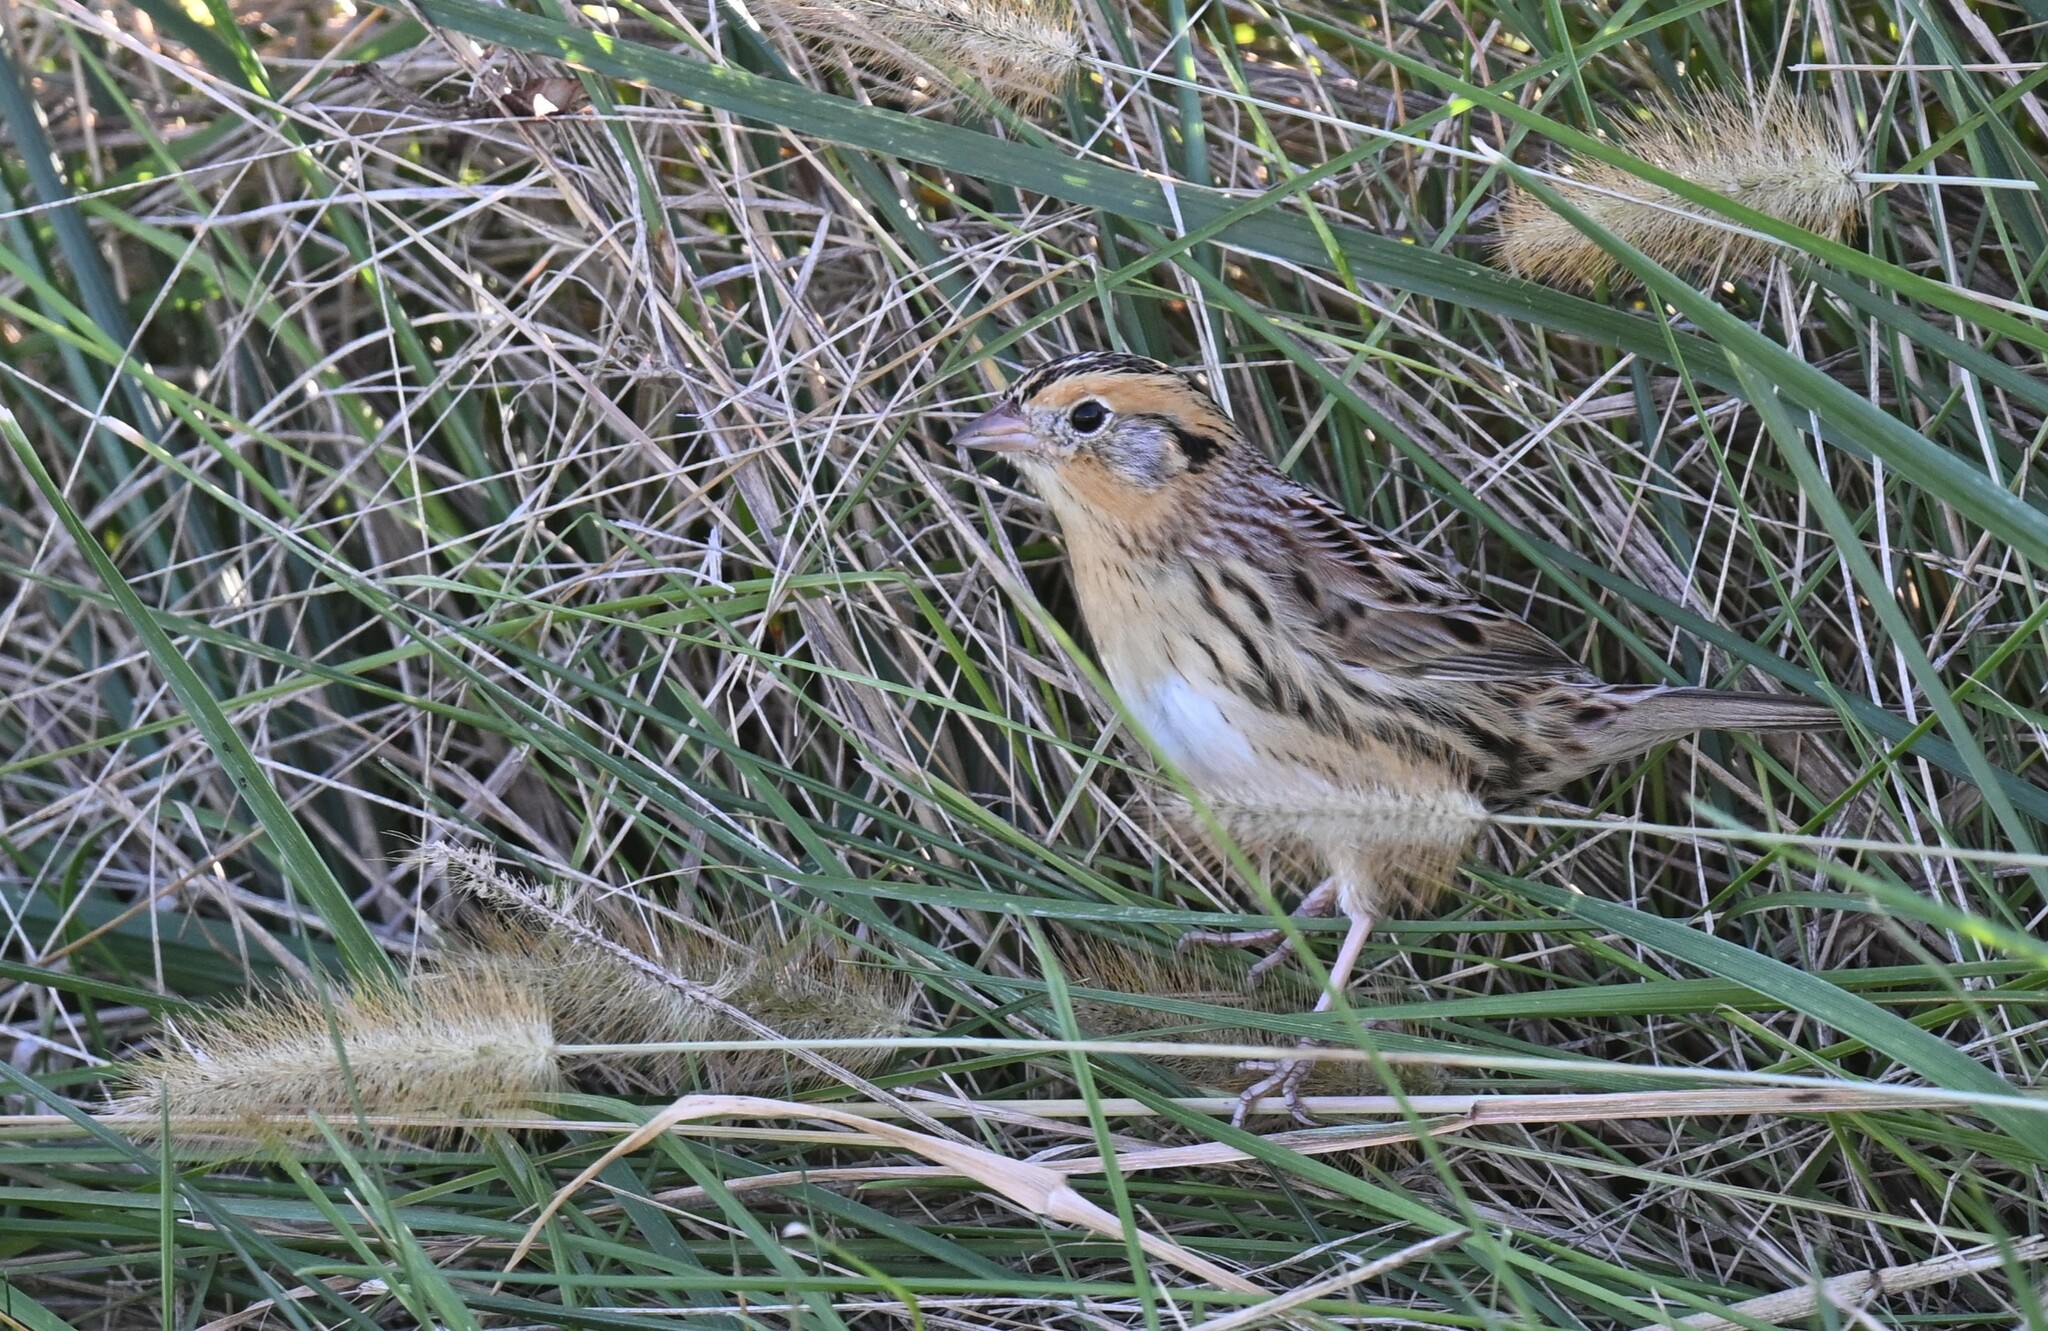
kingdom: Animalia
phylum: Chordata
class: Aves
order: Passeriformes
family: Passerellidae
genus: Ammospiza
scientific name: Ammospiza leconteii
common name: Le conte's sparrow
